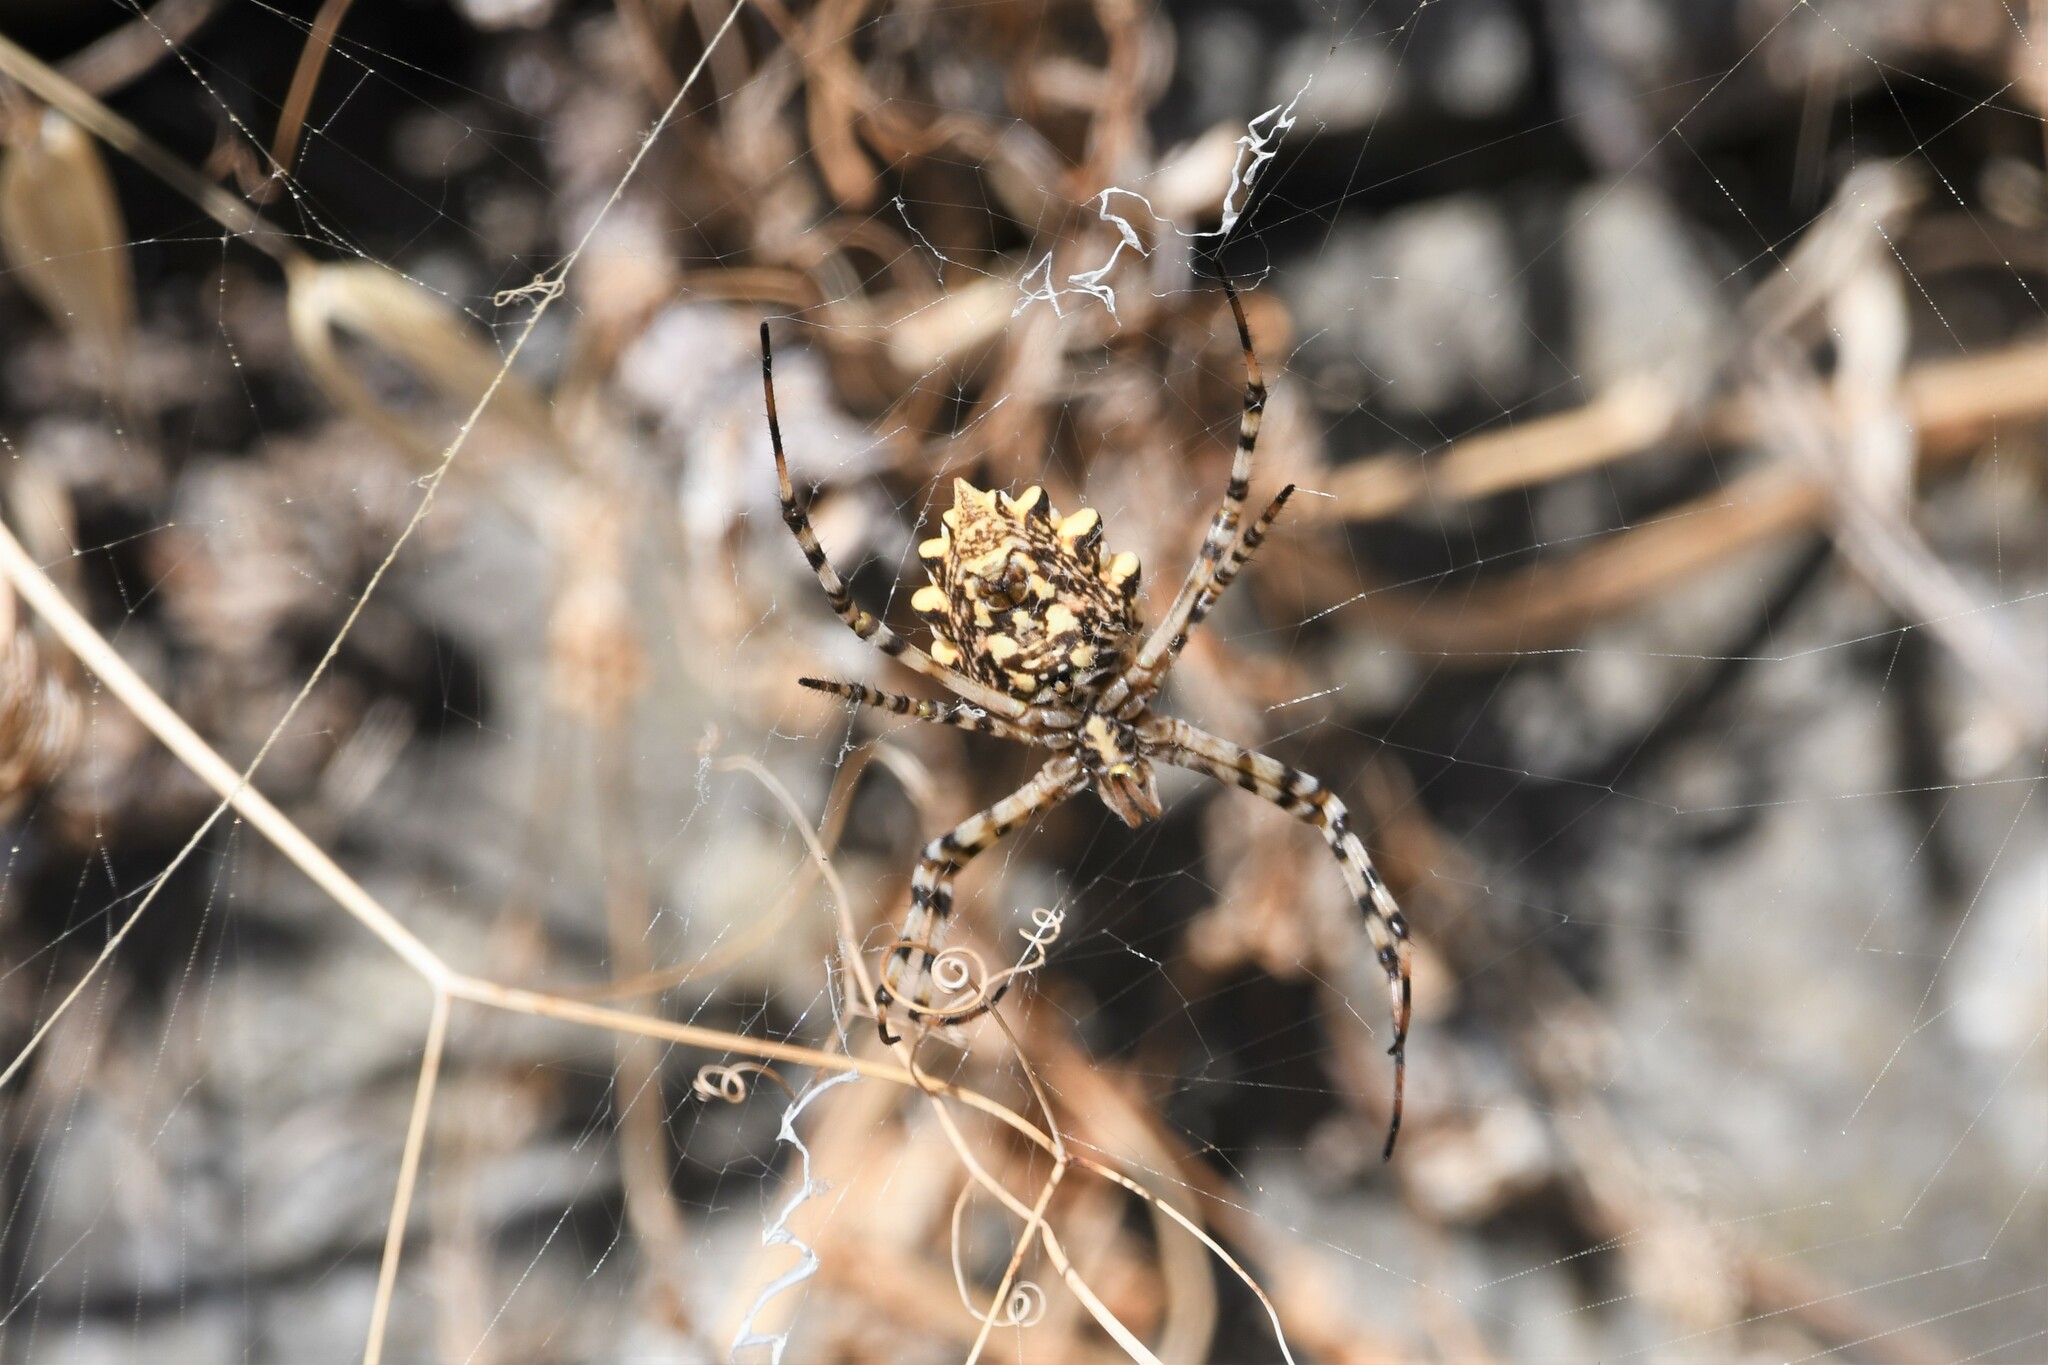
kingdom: Animalia
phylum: Arthropoda
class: Arachnida
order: Araneae
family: Araneidae
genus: Argiope
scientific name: Argiope lobata
